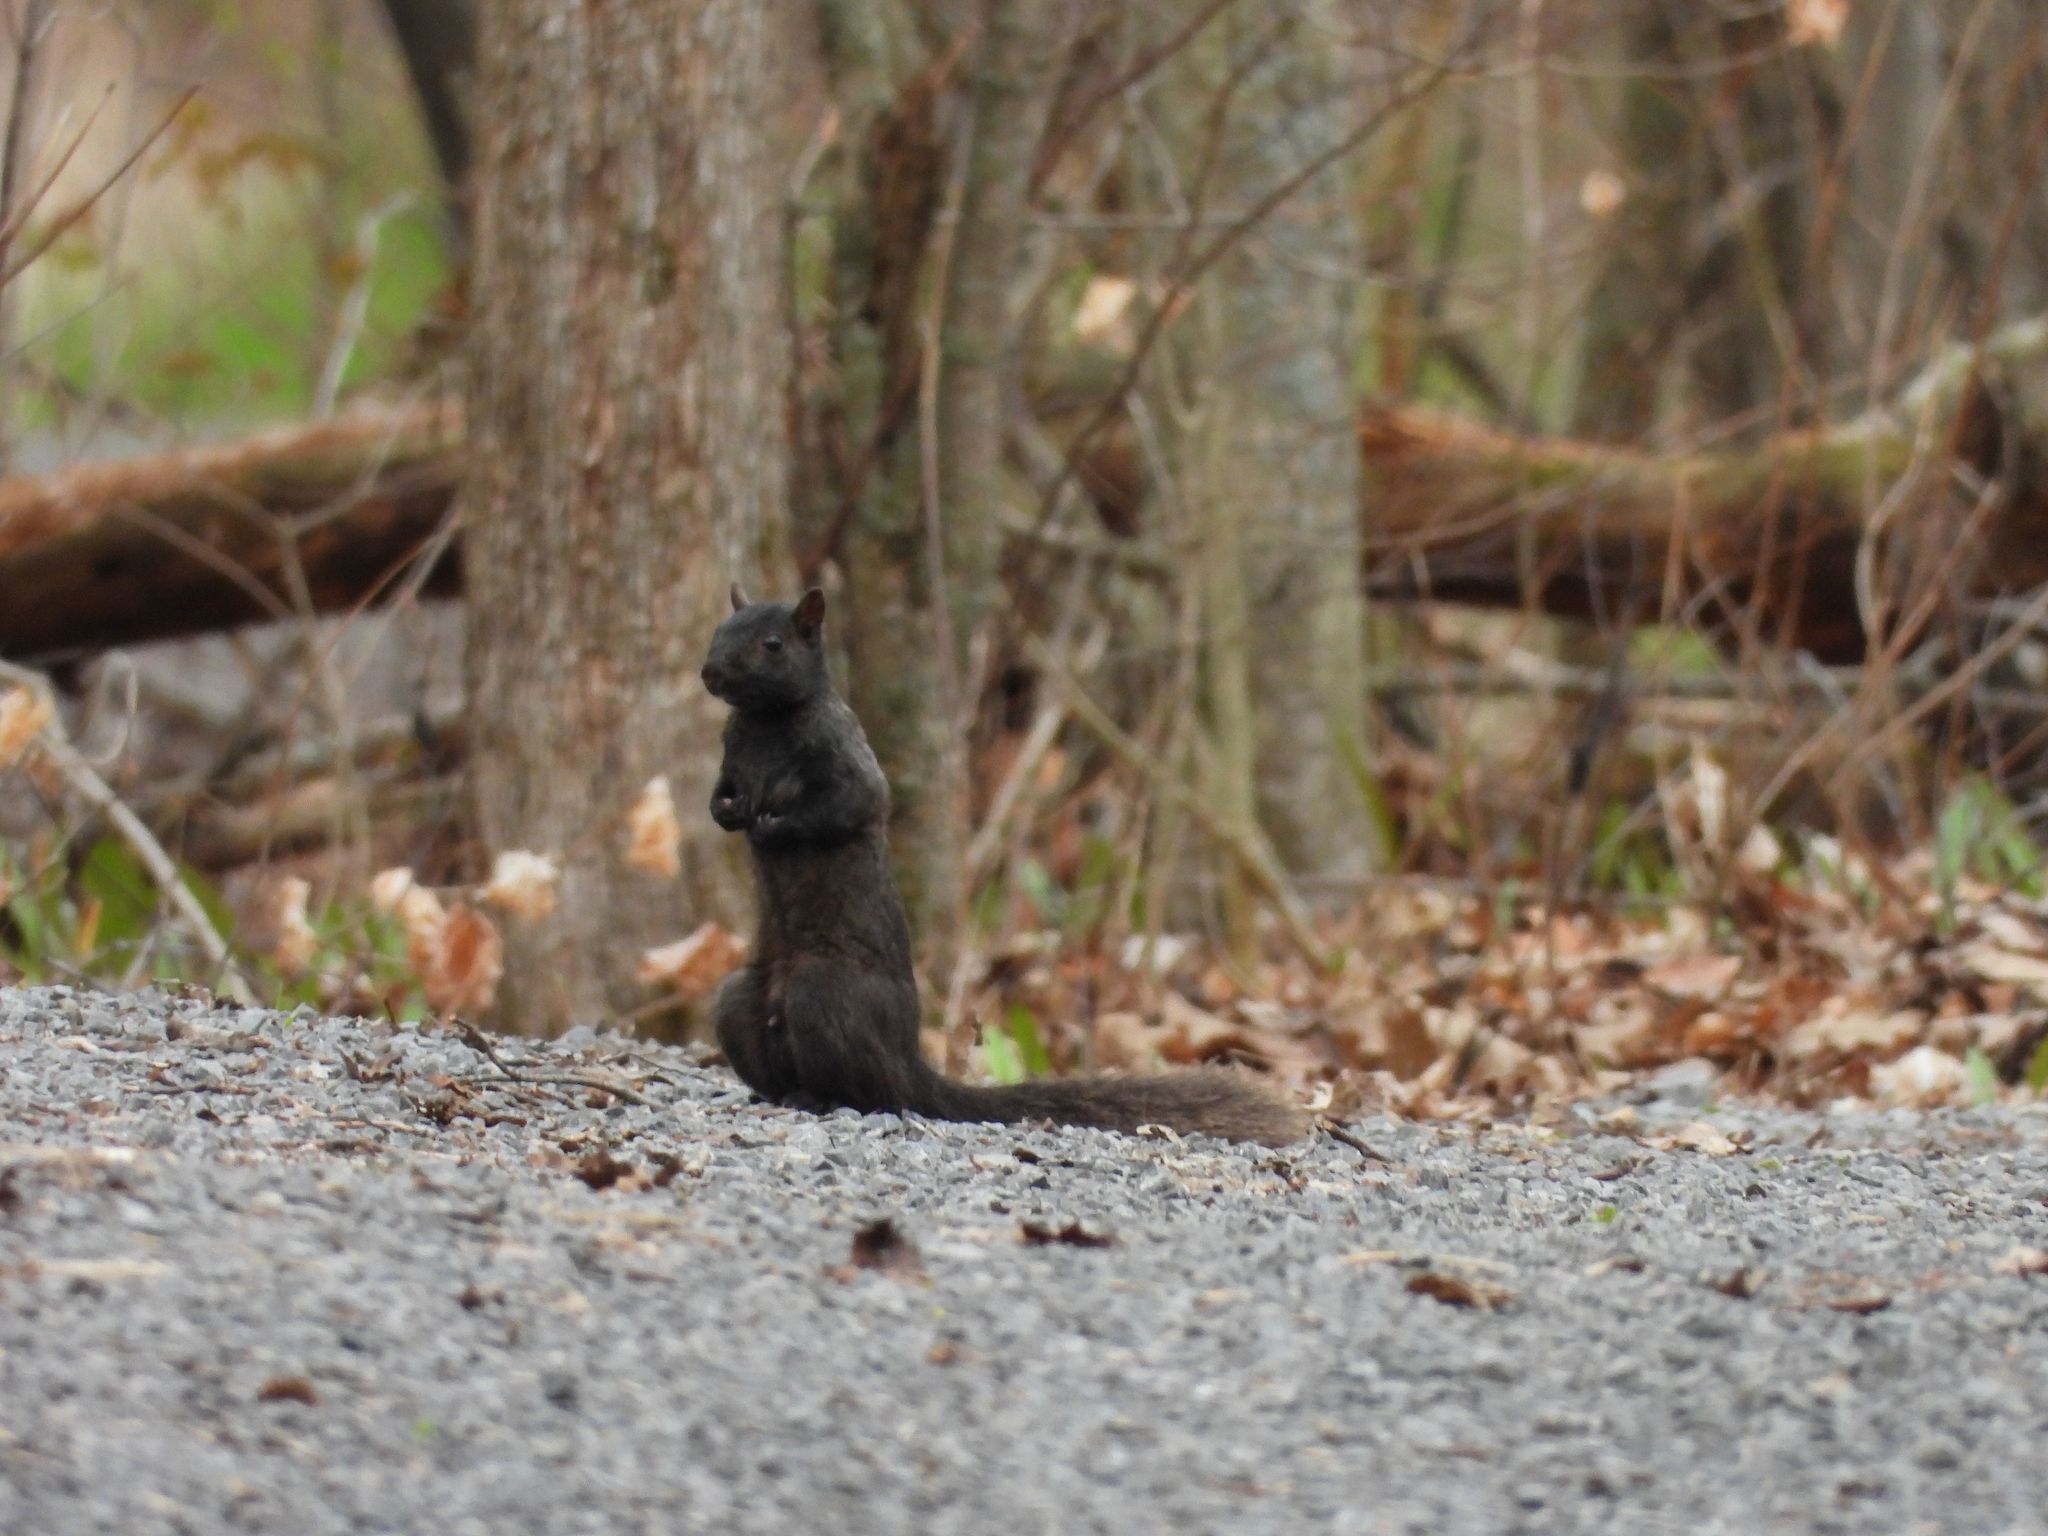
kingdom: Animalia
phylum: Chordata
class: Mammalia
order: Rodentia
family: Sciuridae
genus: Sciurus
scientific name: Sciurus carolinensis
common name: Eastern gray squirrel
